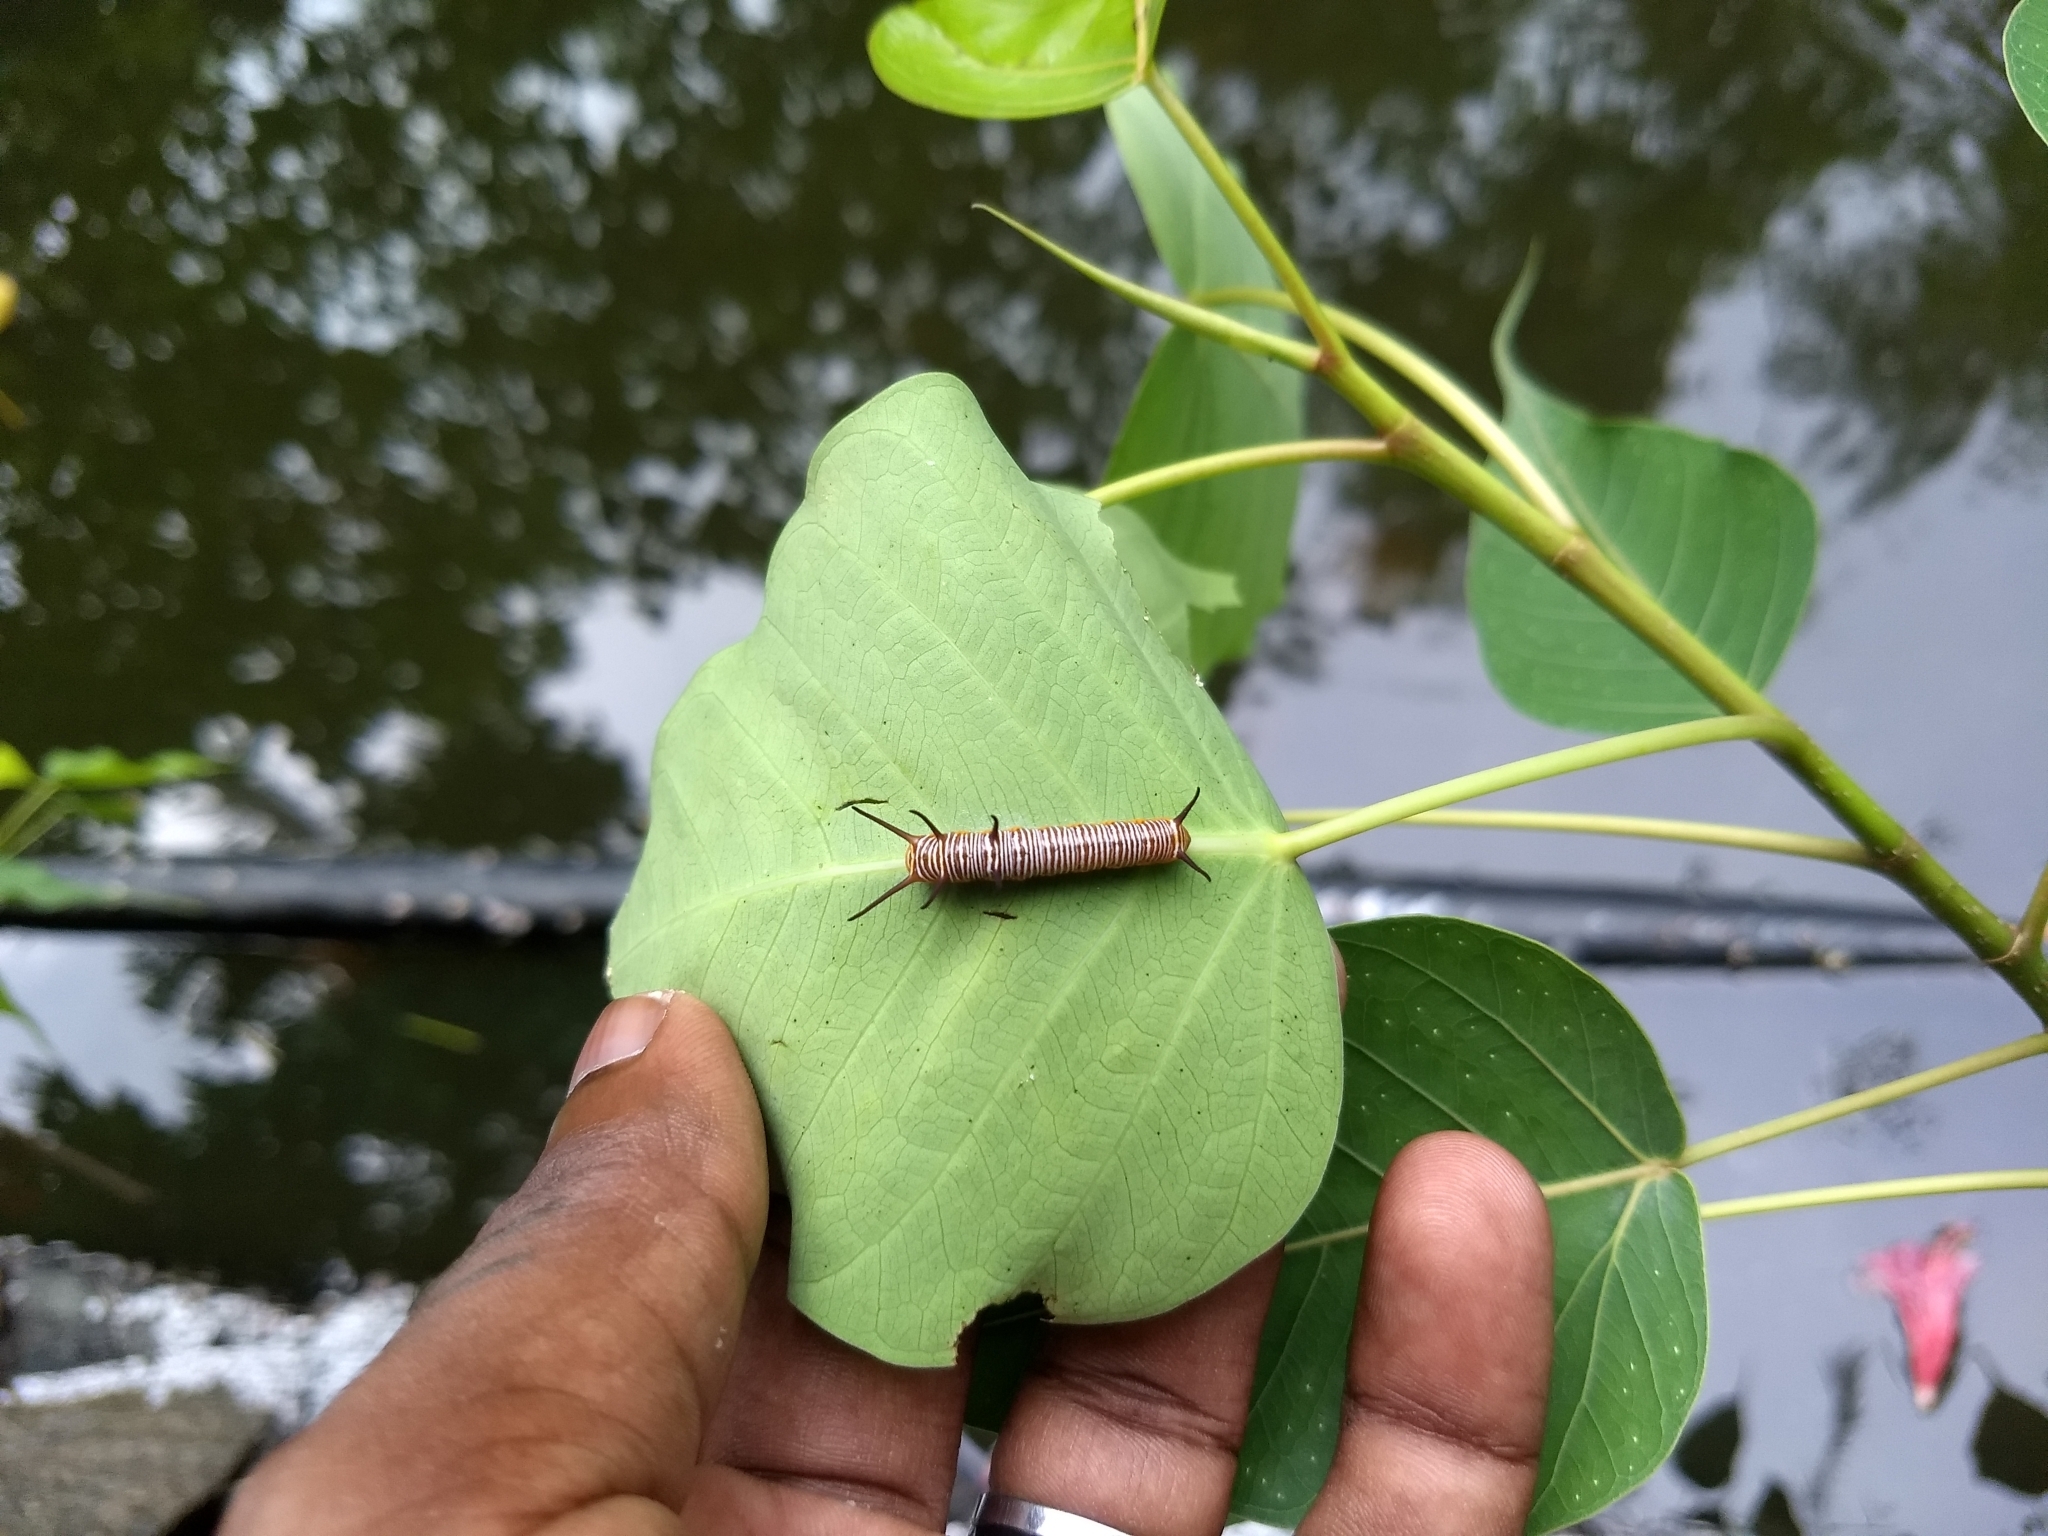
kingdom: Animalia
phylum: Arthropoda
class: Insecta
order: Lepidoptera
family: Nymphalidae
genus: Euploea
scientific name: Euploea core
